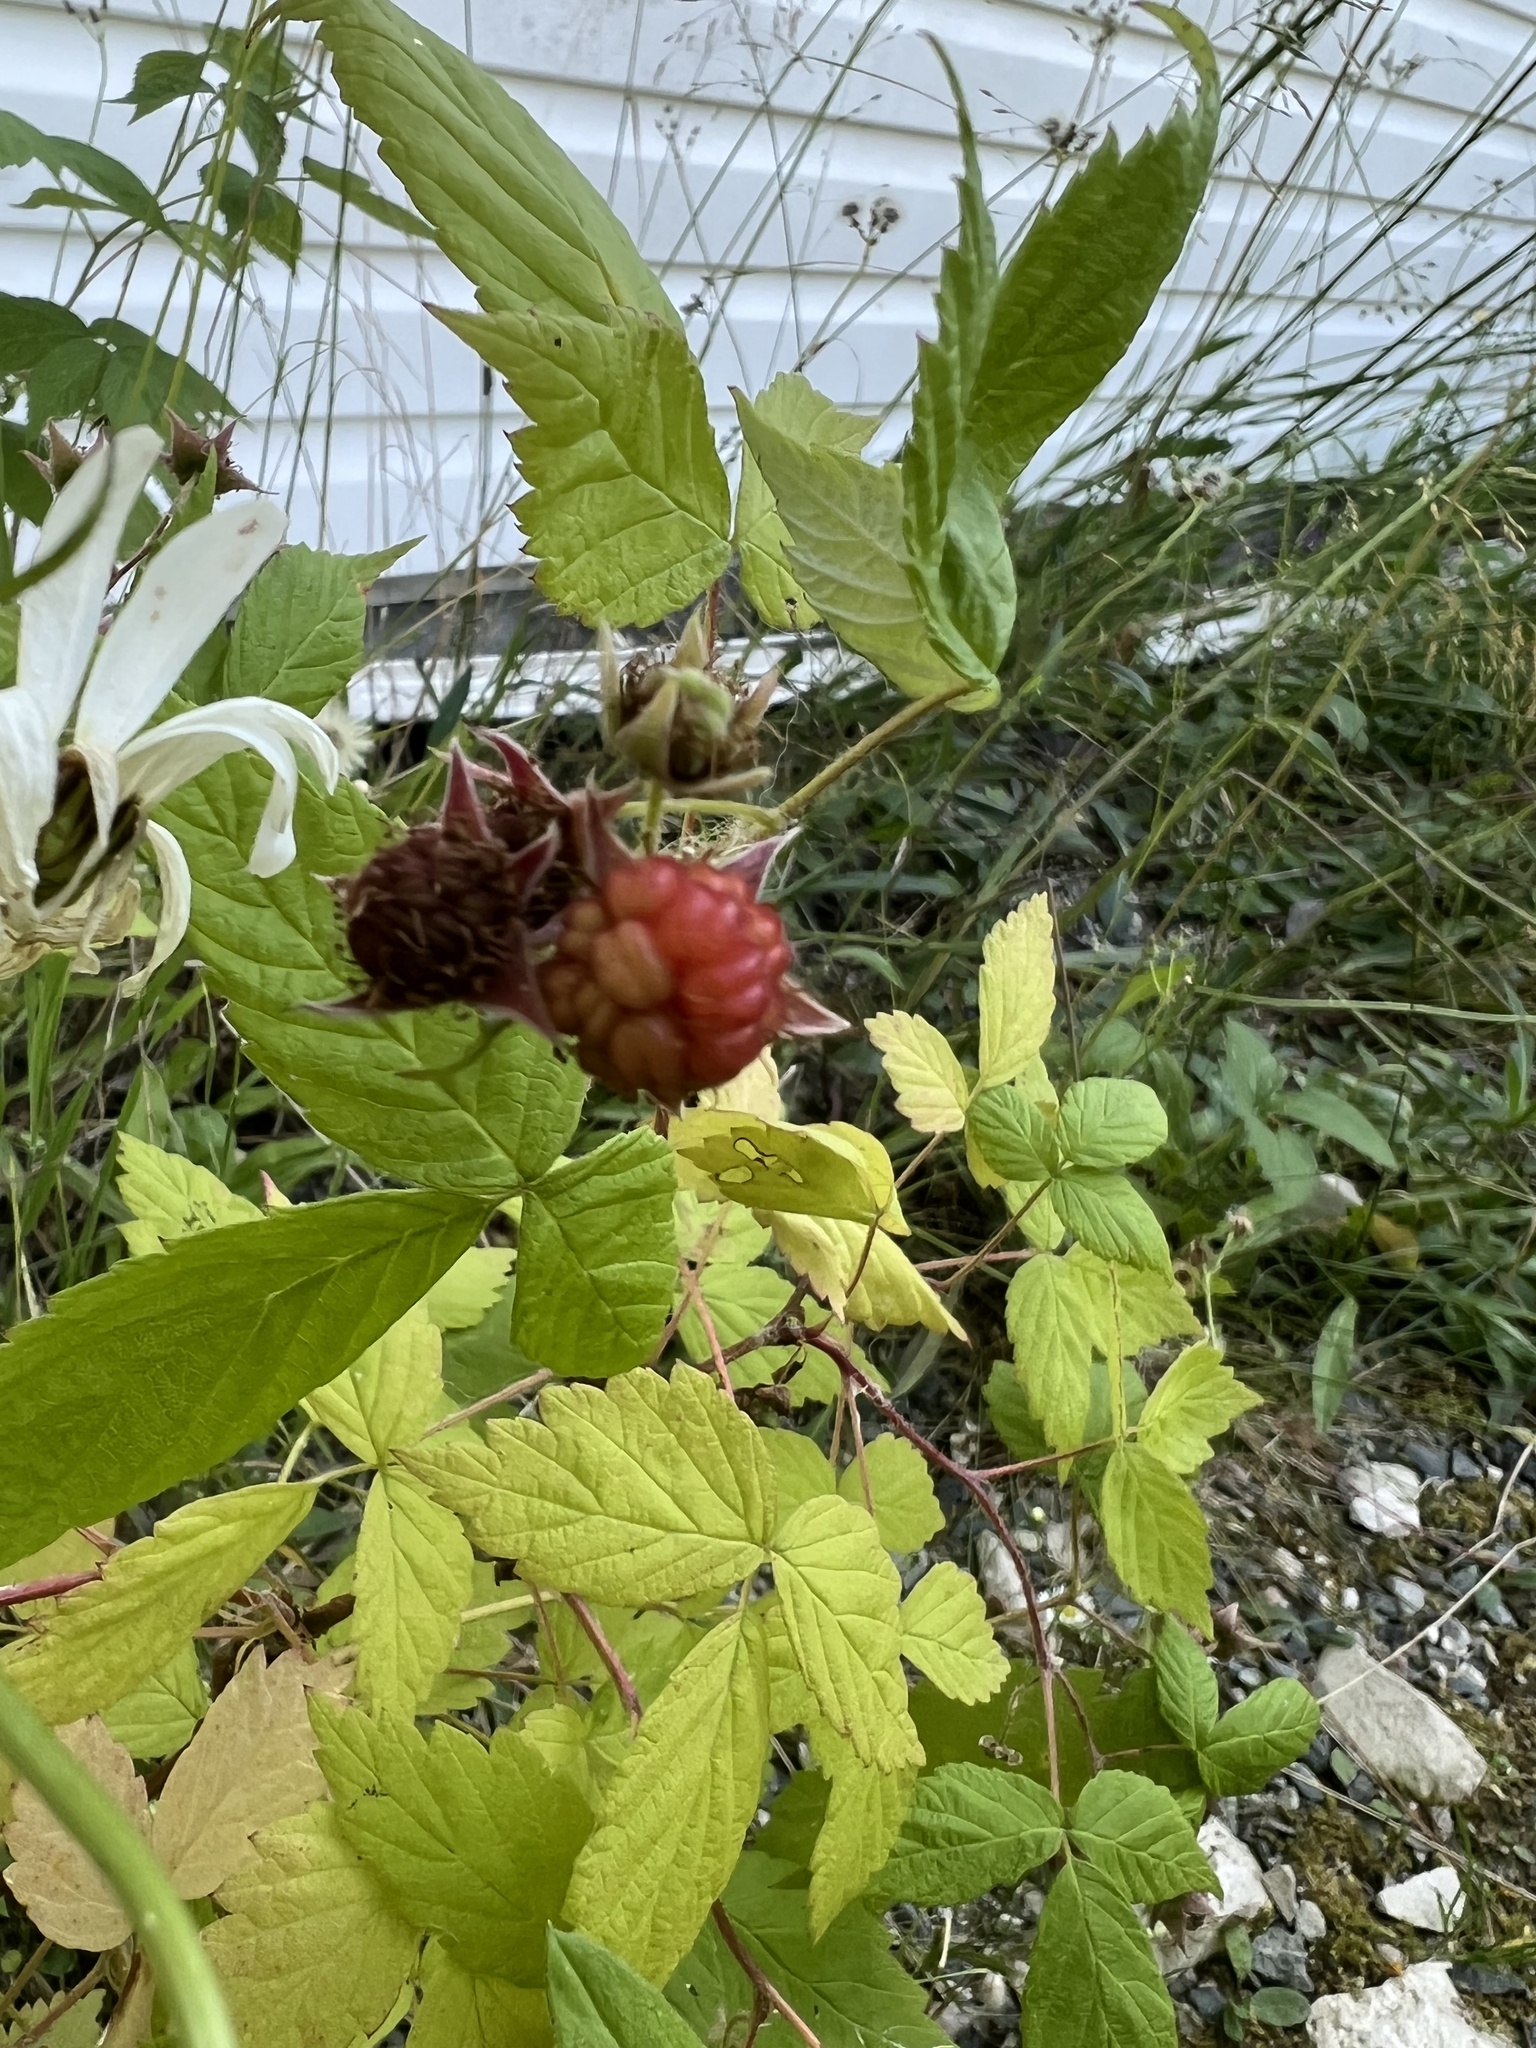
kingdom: Plantae
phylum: Tracheophyta
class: Magnoliopsida
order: Rosales
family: Rosaceae
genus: Rubus
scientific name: Rubus idaeus
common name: Raspberry
